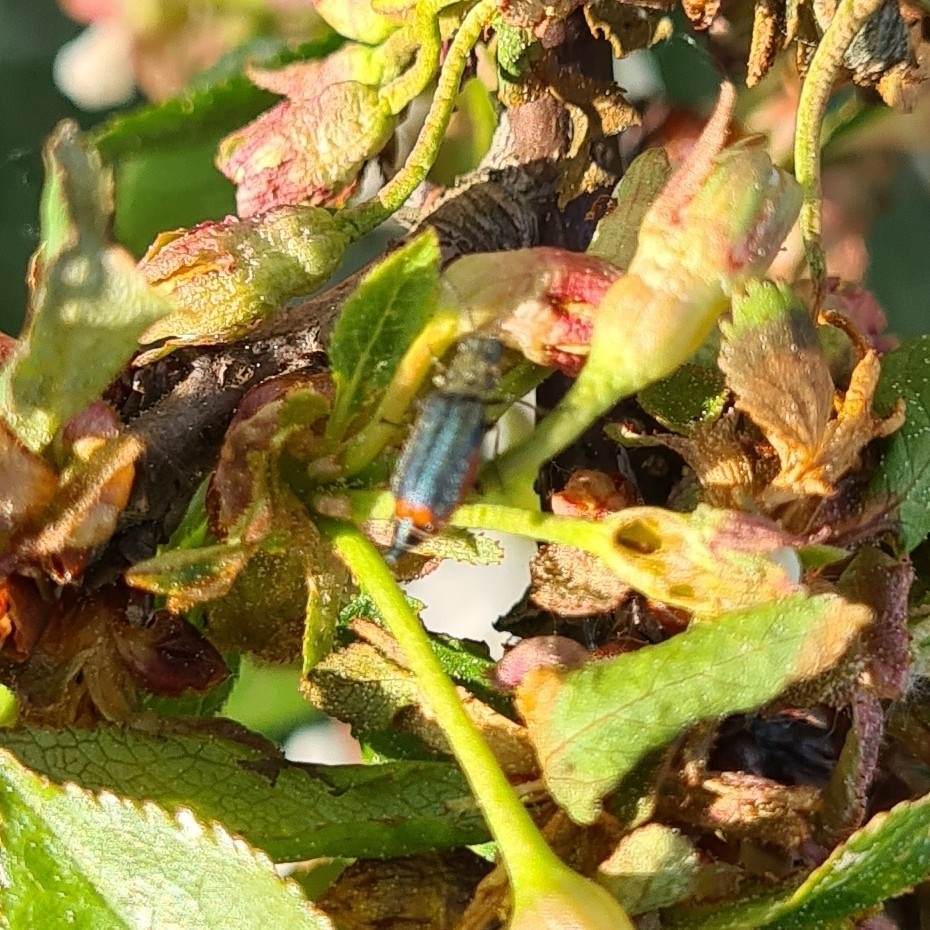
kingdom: Animalia
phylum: Arthropoda
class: Insecta
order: Coleoptera
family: Melyridae
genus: Malachius
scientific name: Malachius bipustulatus
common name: Malachite beetle
